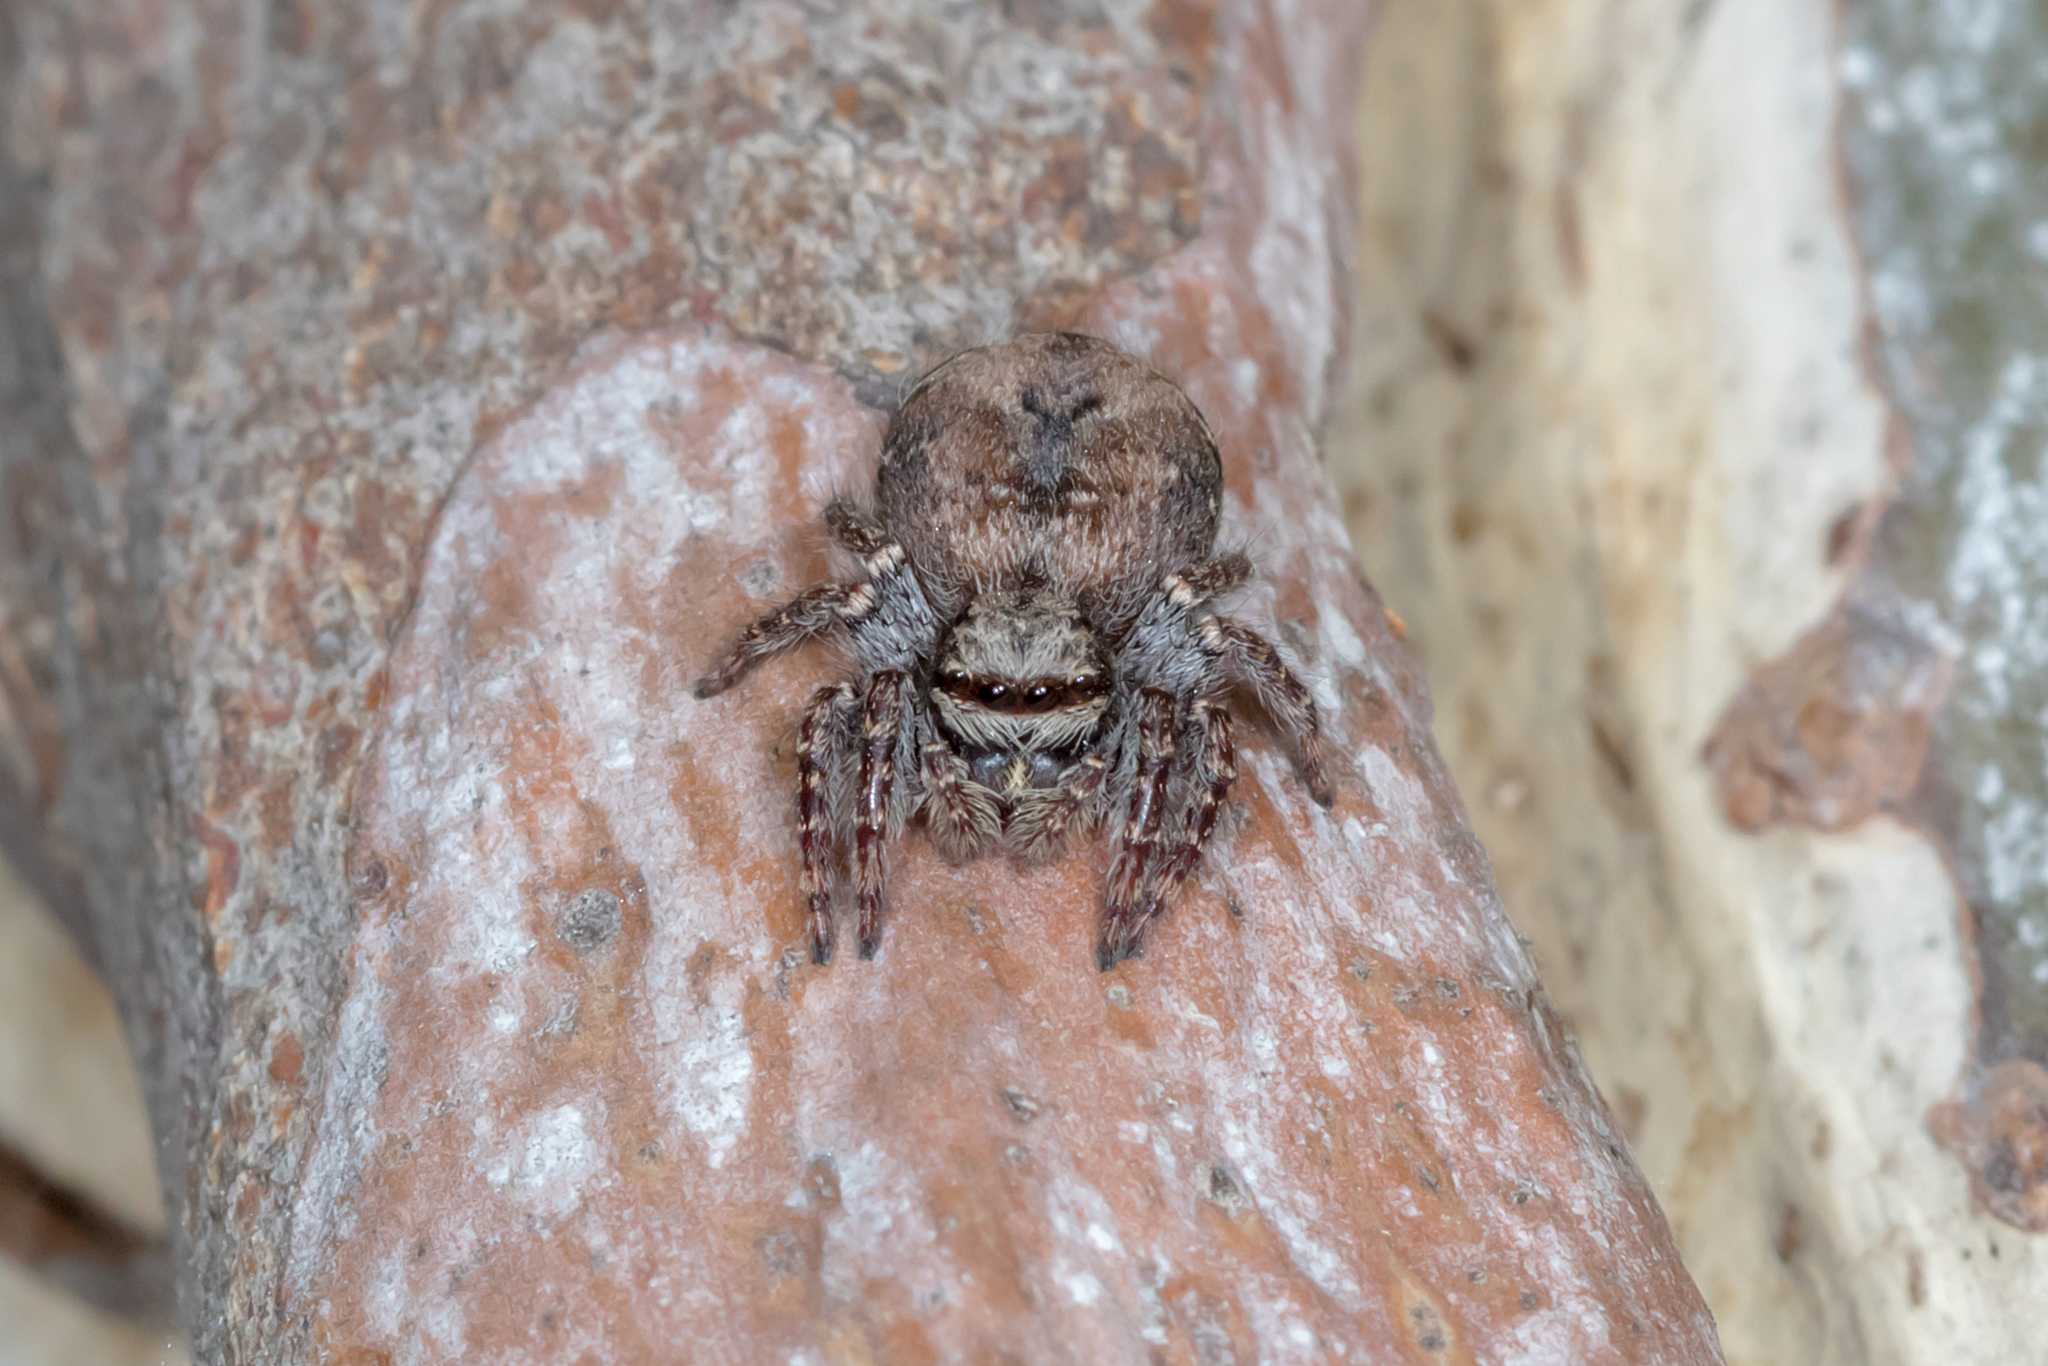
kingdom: Animalia
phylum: Arthropoda
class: Arachnida
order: Araneae
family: Salticidae
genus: Servaea
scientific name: Servaea incana
